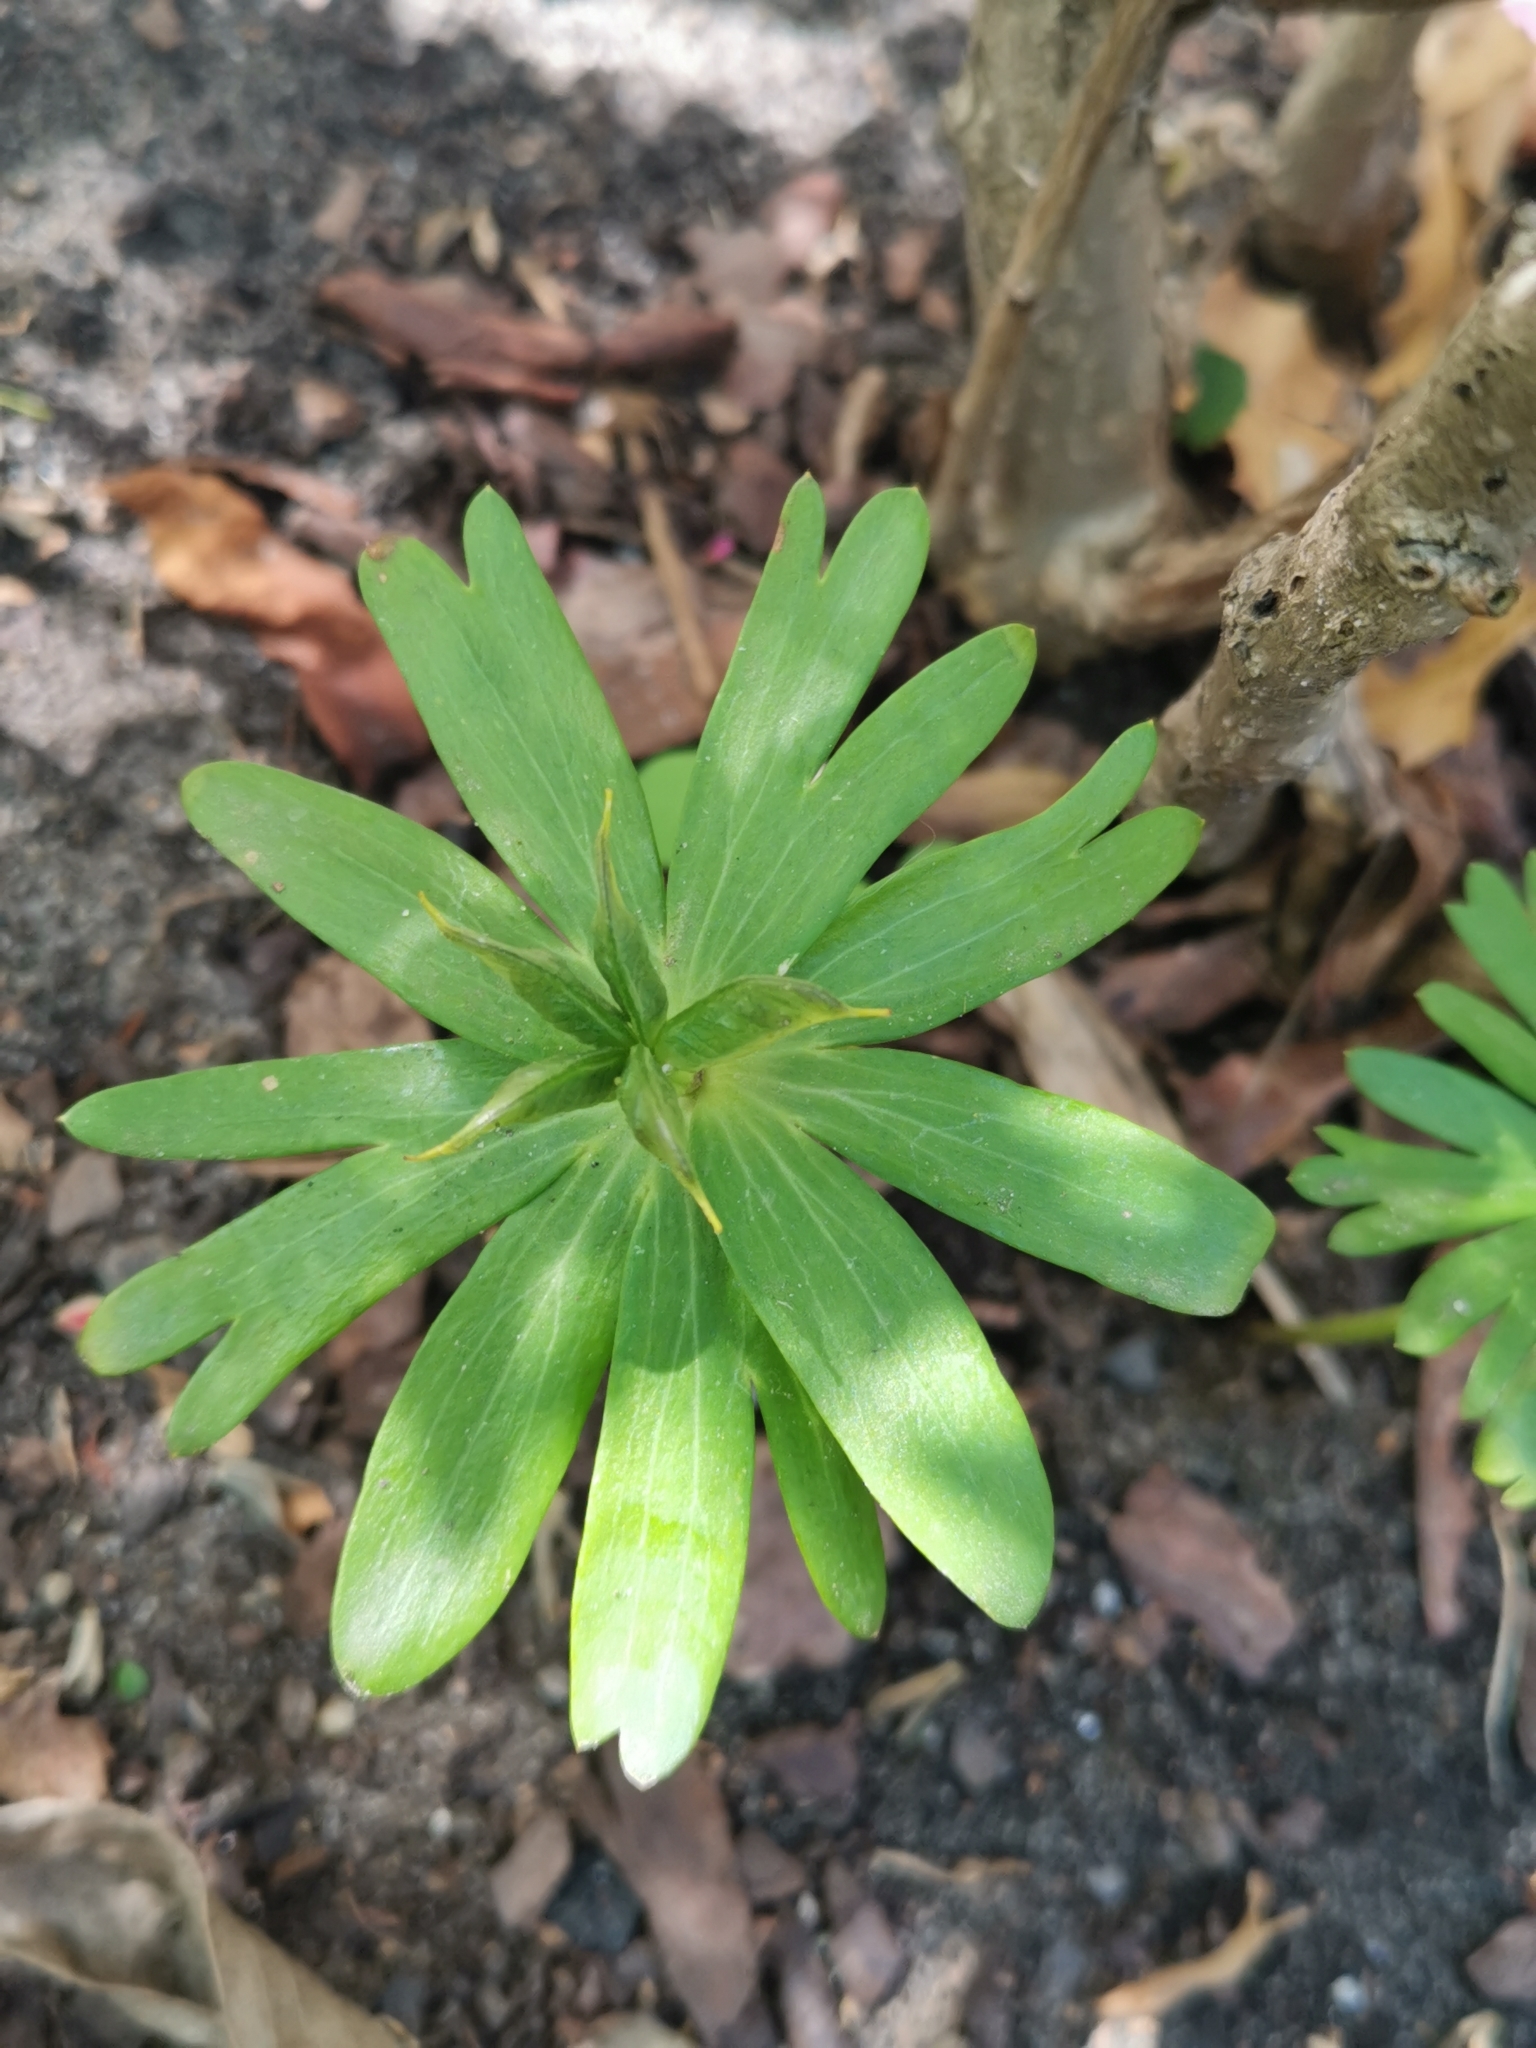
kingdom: Plantae
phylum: Tracheophyta
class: Magnoliopsida
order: Ranunculales
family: Ranunculaceae
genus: Eranthis
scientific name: Eranthis hyemalis
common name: Winter aconite
